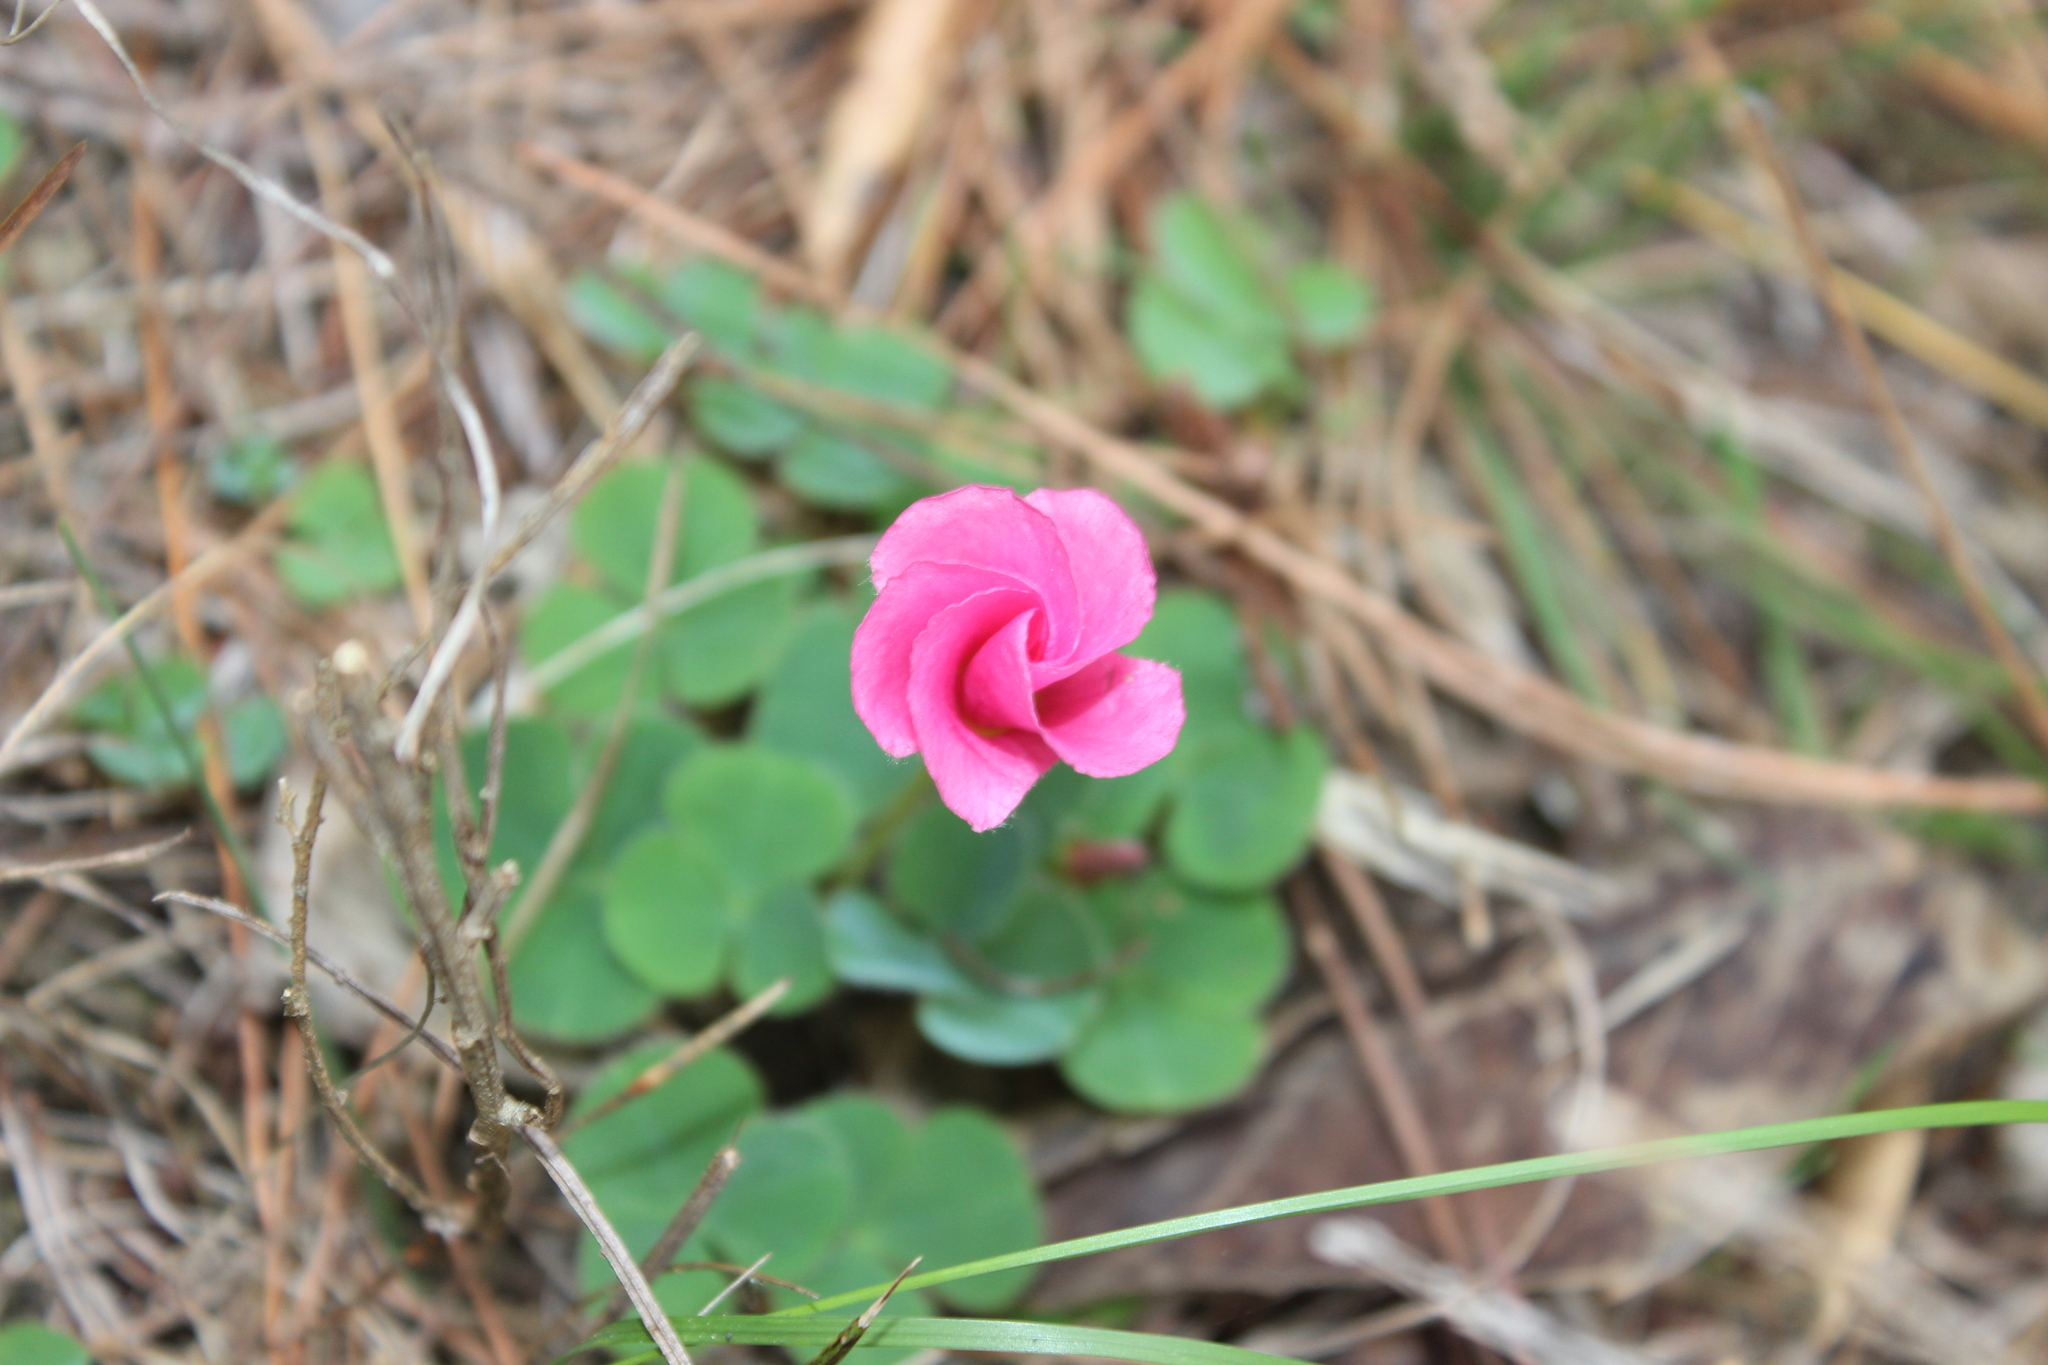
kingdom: Plantae
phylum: Tracheophyta
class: Magnoliopsida
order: Oxalidales
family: Oxalidaceae
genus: Oxalis
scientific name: Oxalis purpurea
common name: Purple woodsorrel
